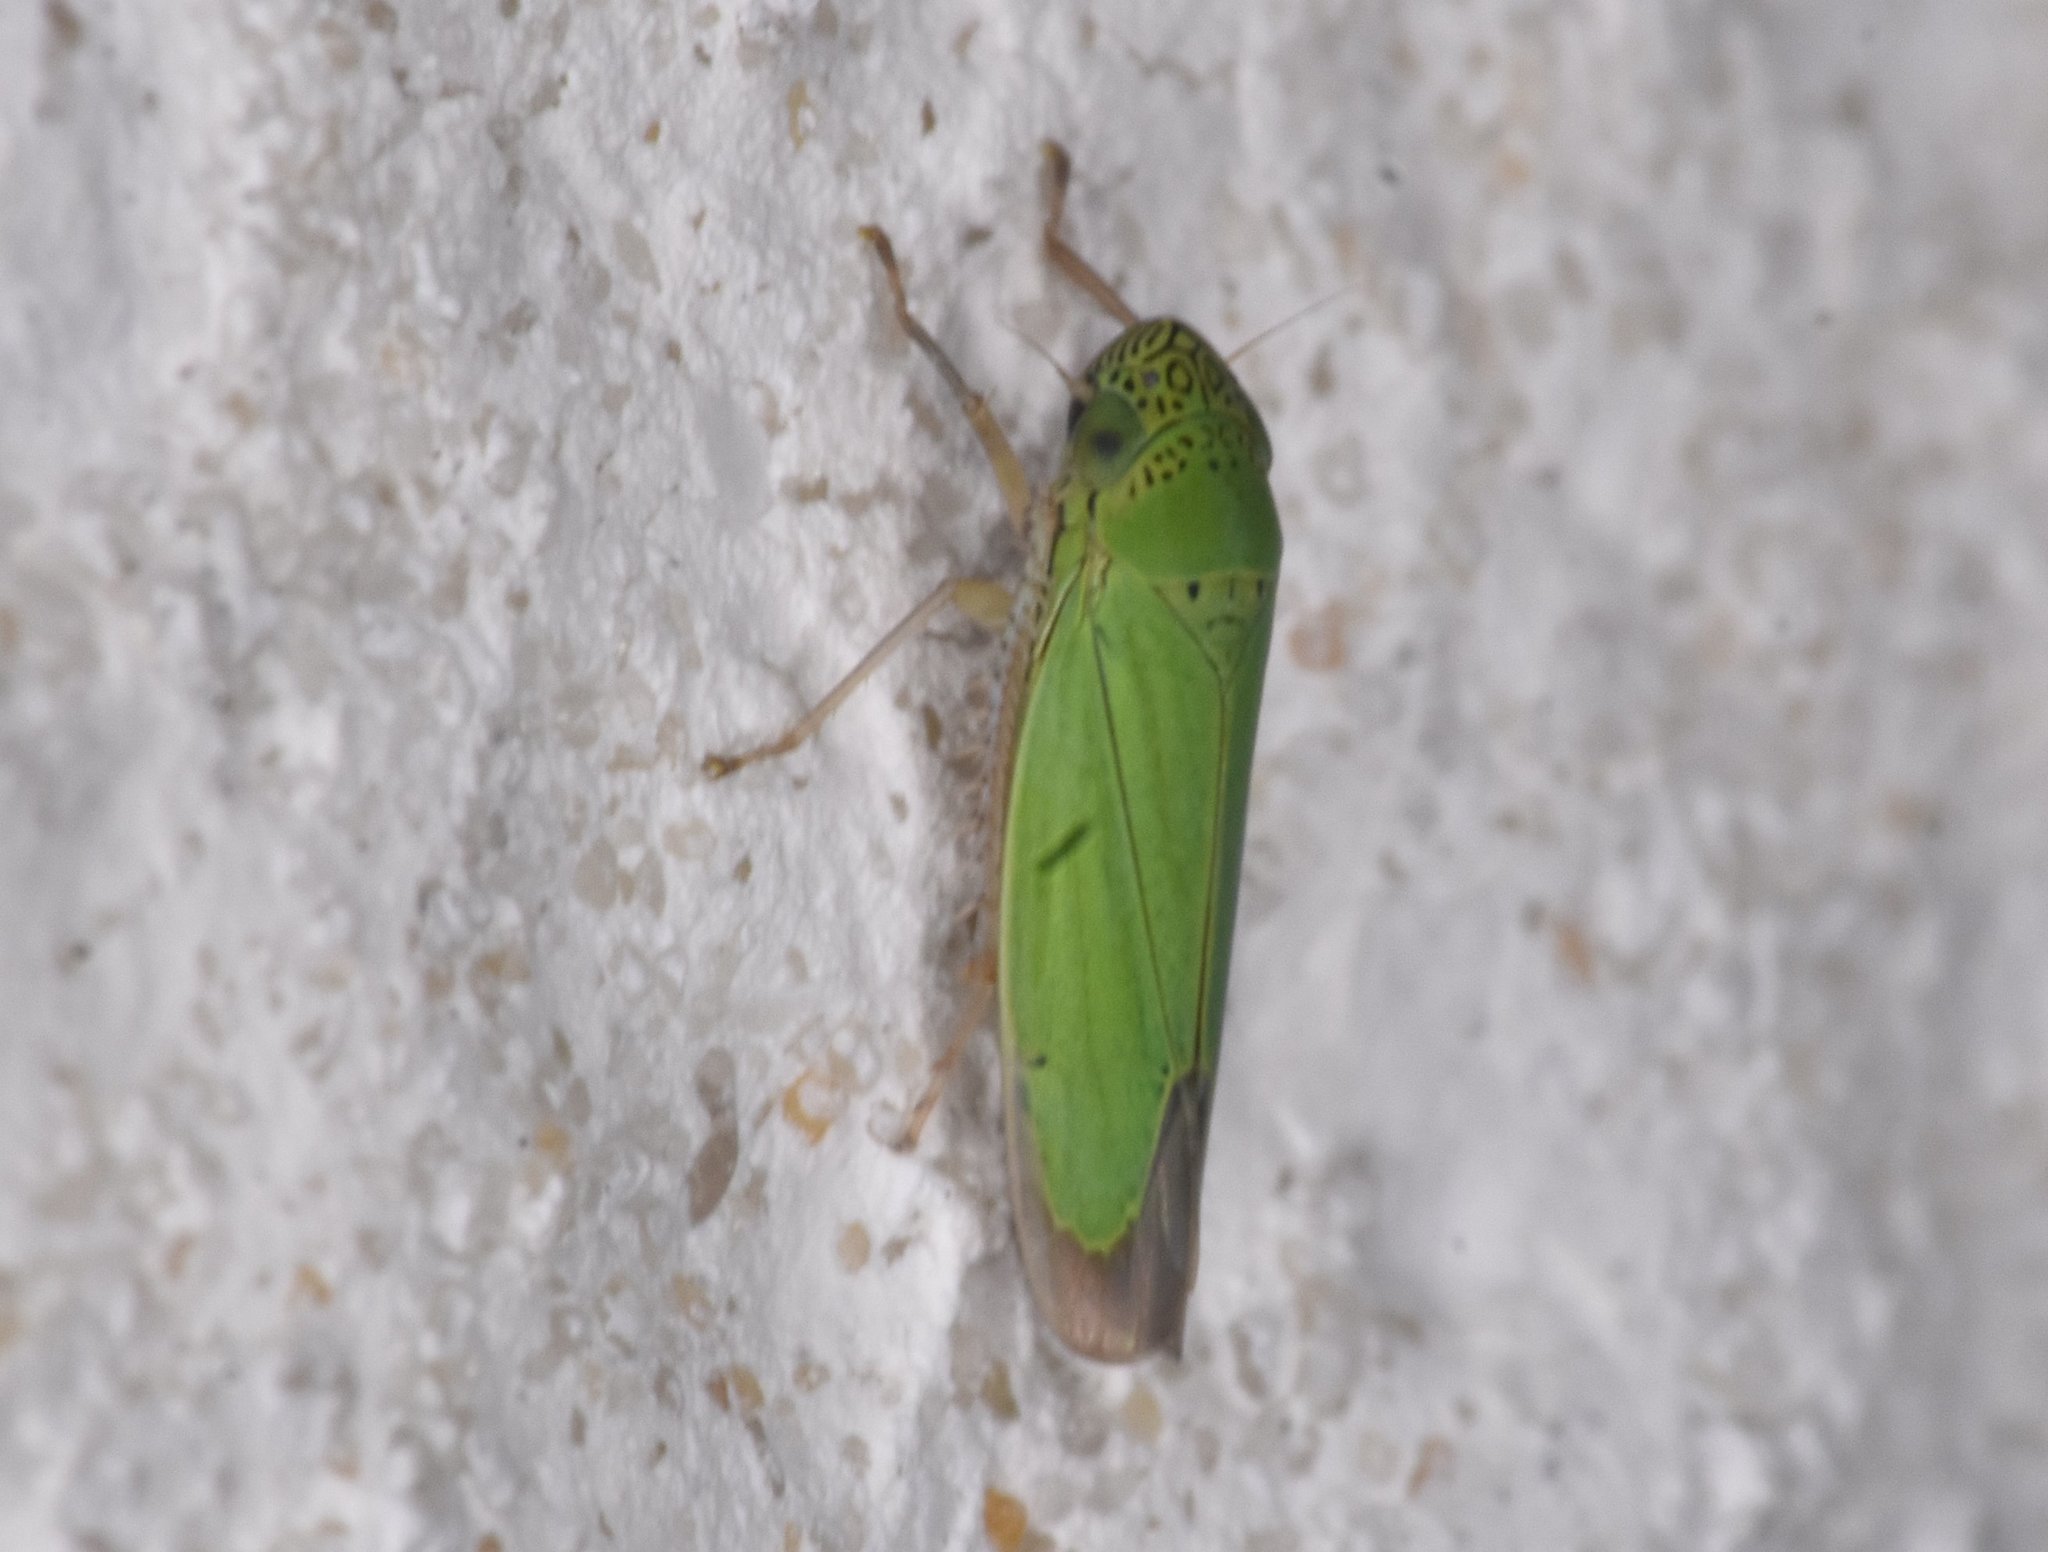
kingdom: Animalia
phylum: Arthropoda
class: Insecta
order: Hemiptera
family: Cicadellidae
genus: Hortensia
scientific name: Hortensia similis
